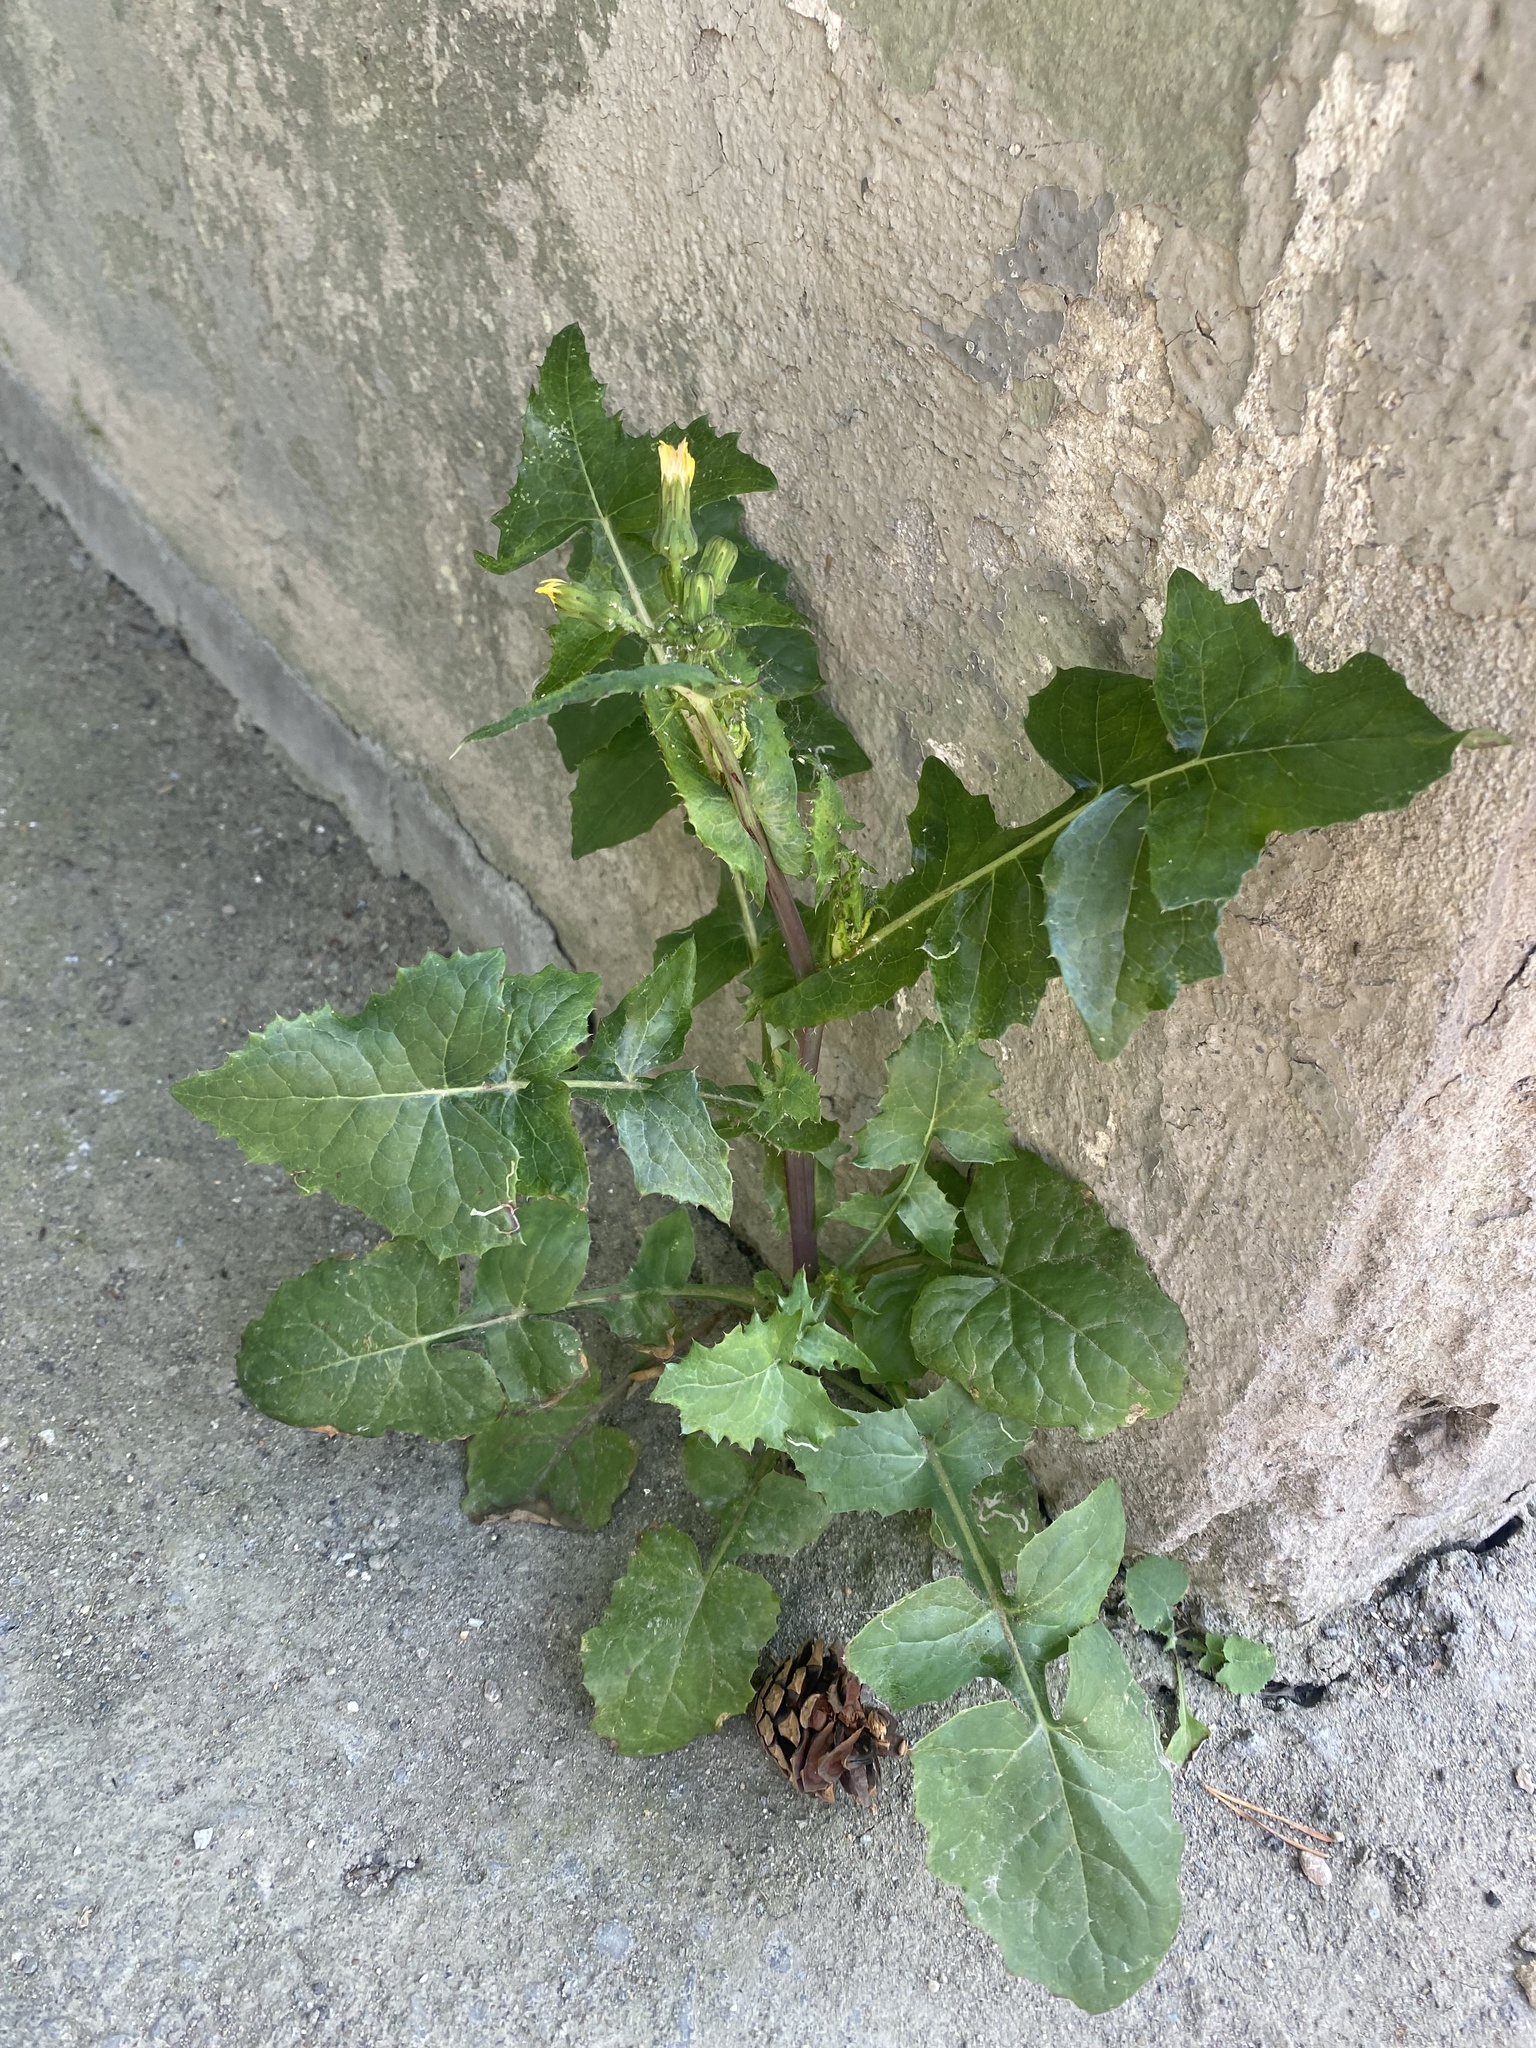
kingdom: Plantae
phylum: Tracheophyta
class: Magnoliopsida
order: Asterales
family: Asteraceae
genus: Sonchus
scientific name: Sonchus oleraceus
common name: Common sowthistle
